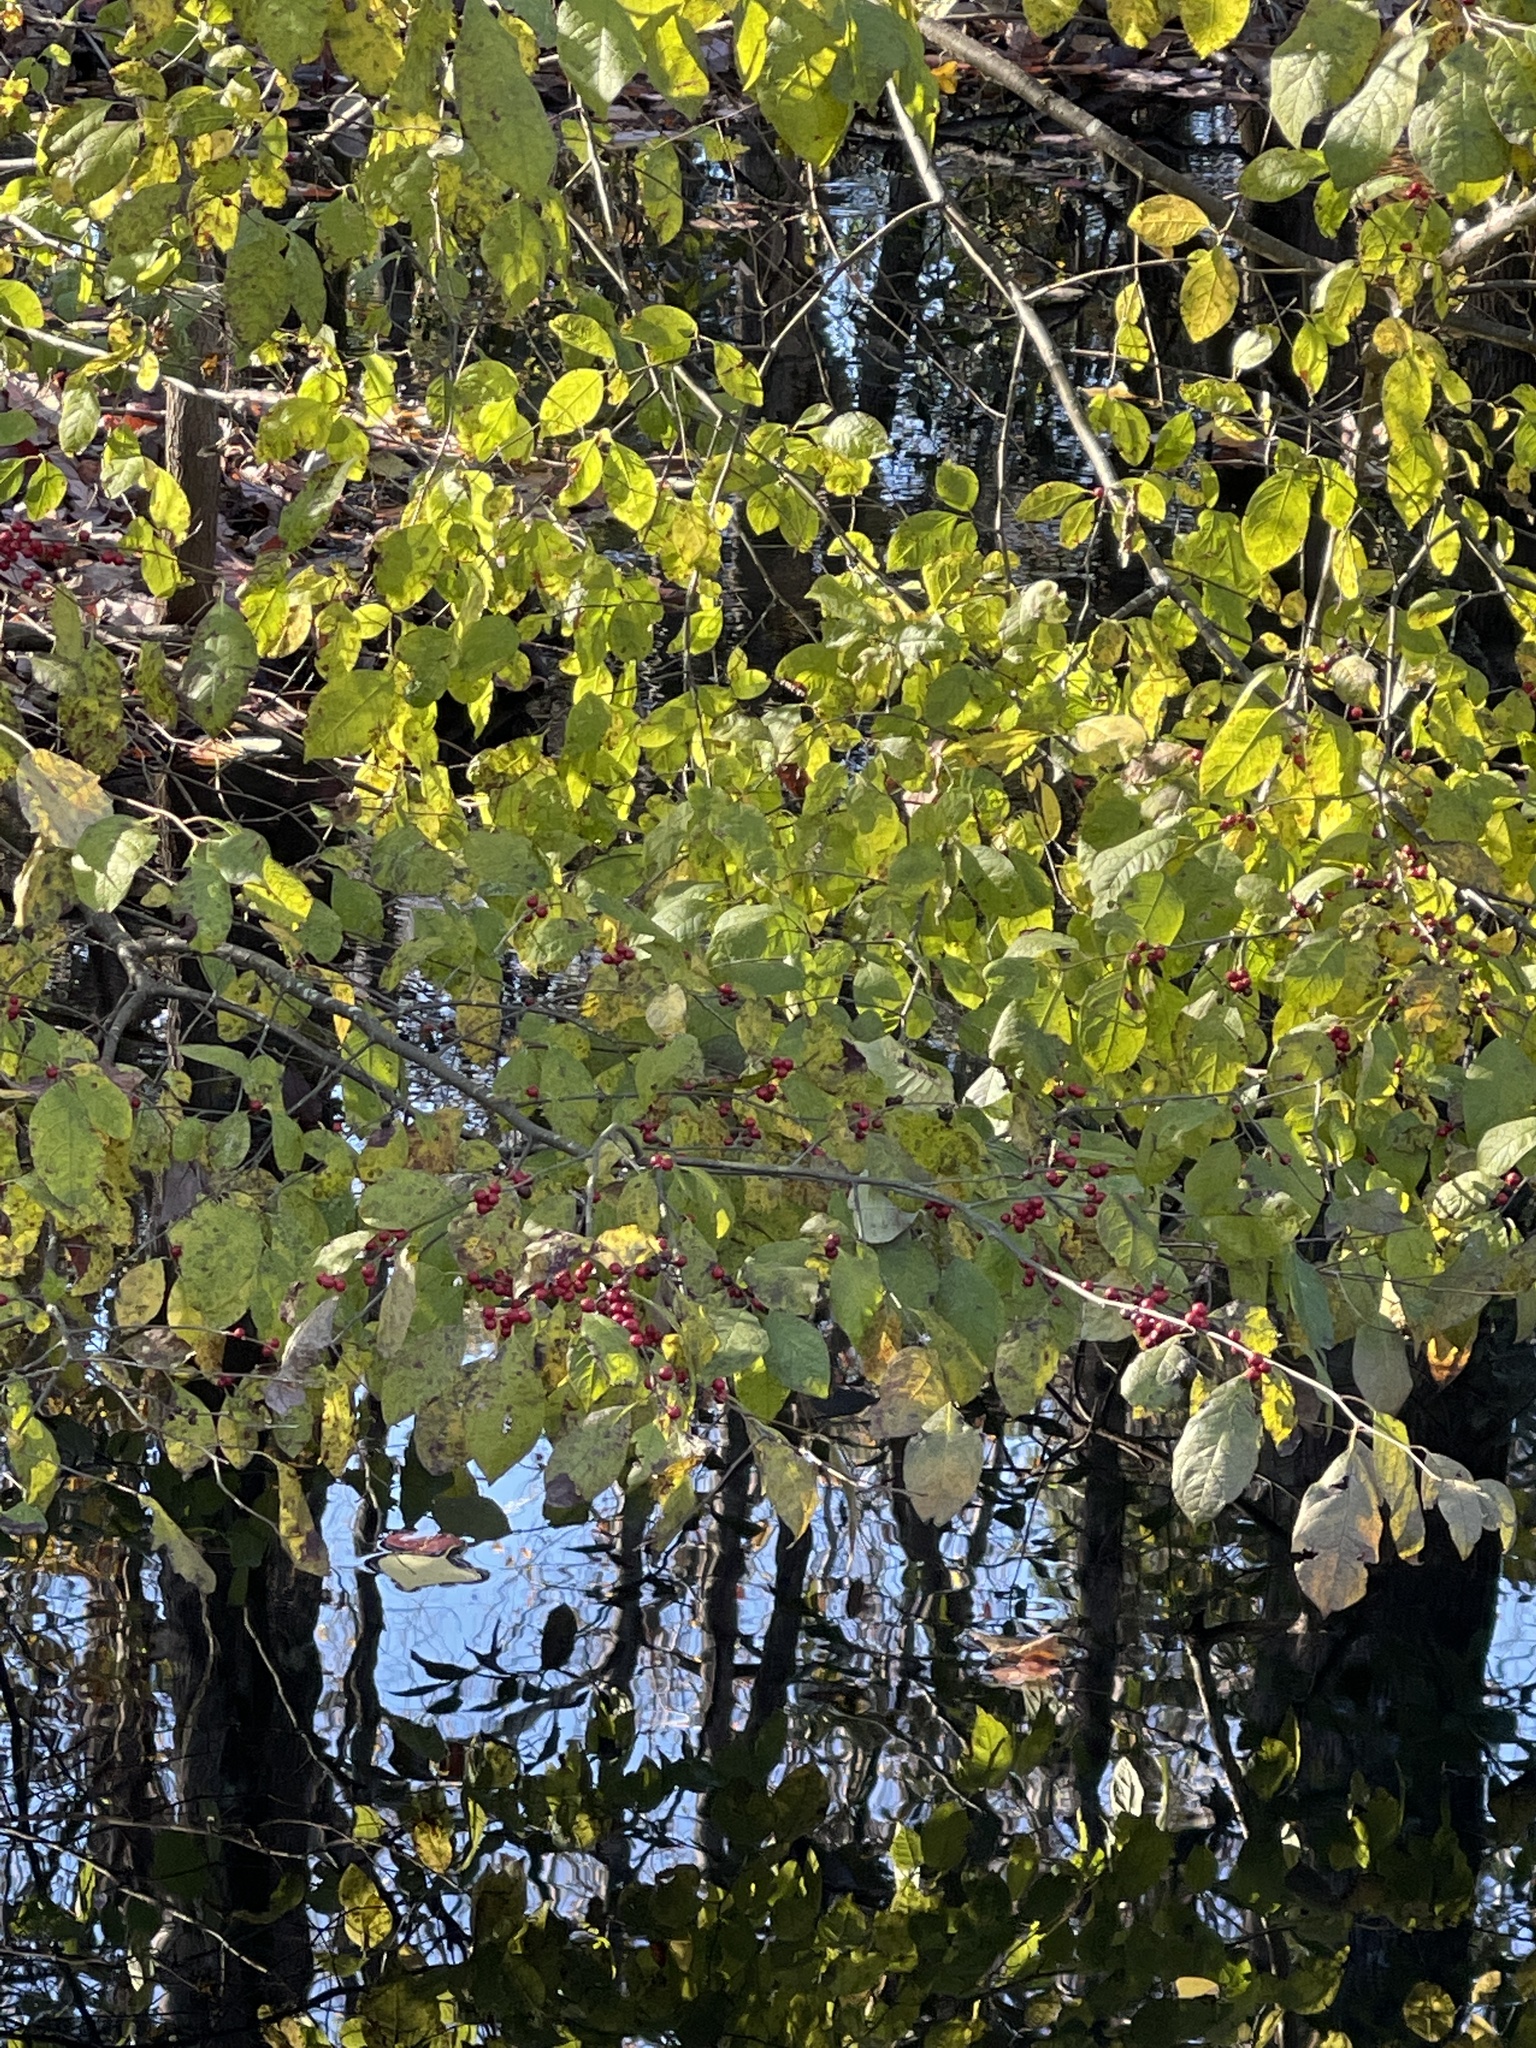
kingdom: Plantae
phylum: Tracheophyta
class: Magnoliopsida
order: Aquifoliales
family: Aquifoliaceae
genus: Ilex
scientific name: Ilex verticillata
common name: Virginia winterberry
